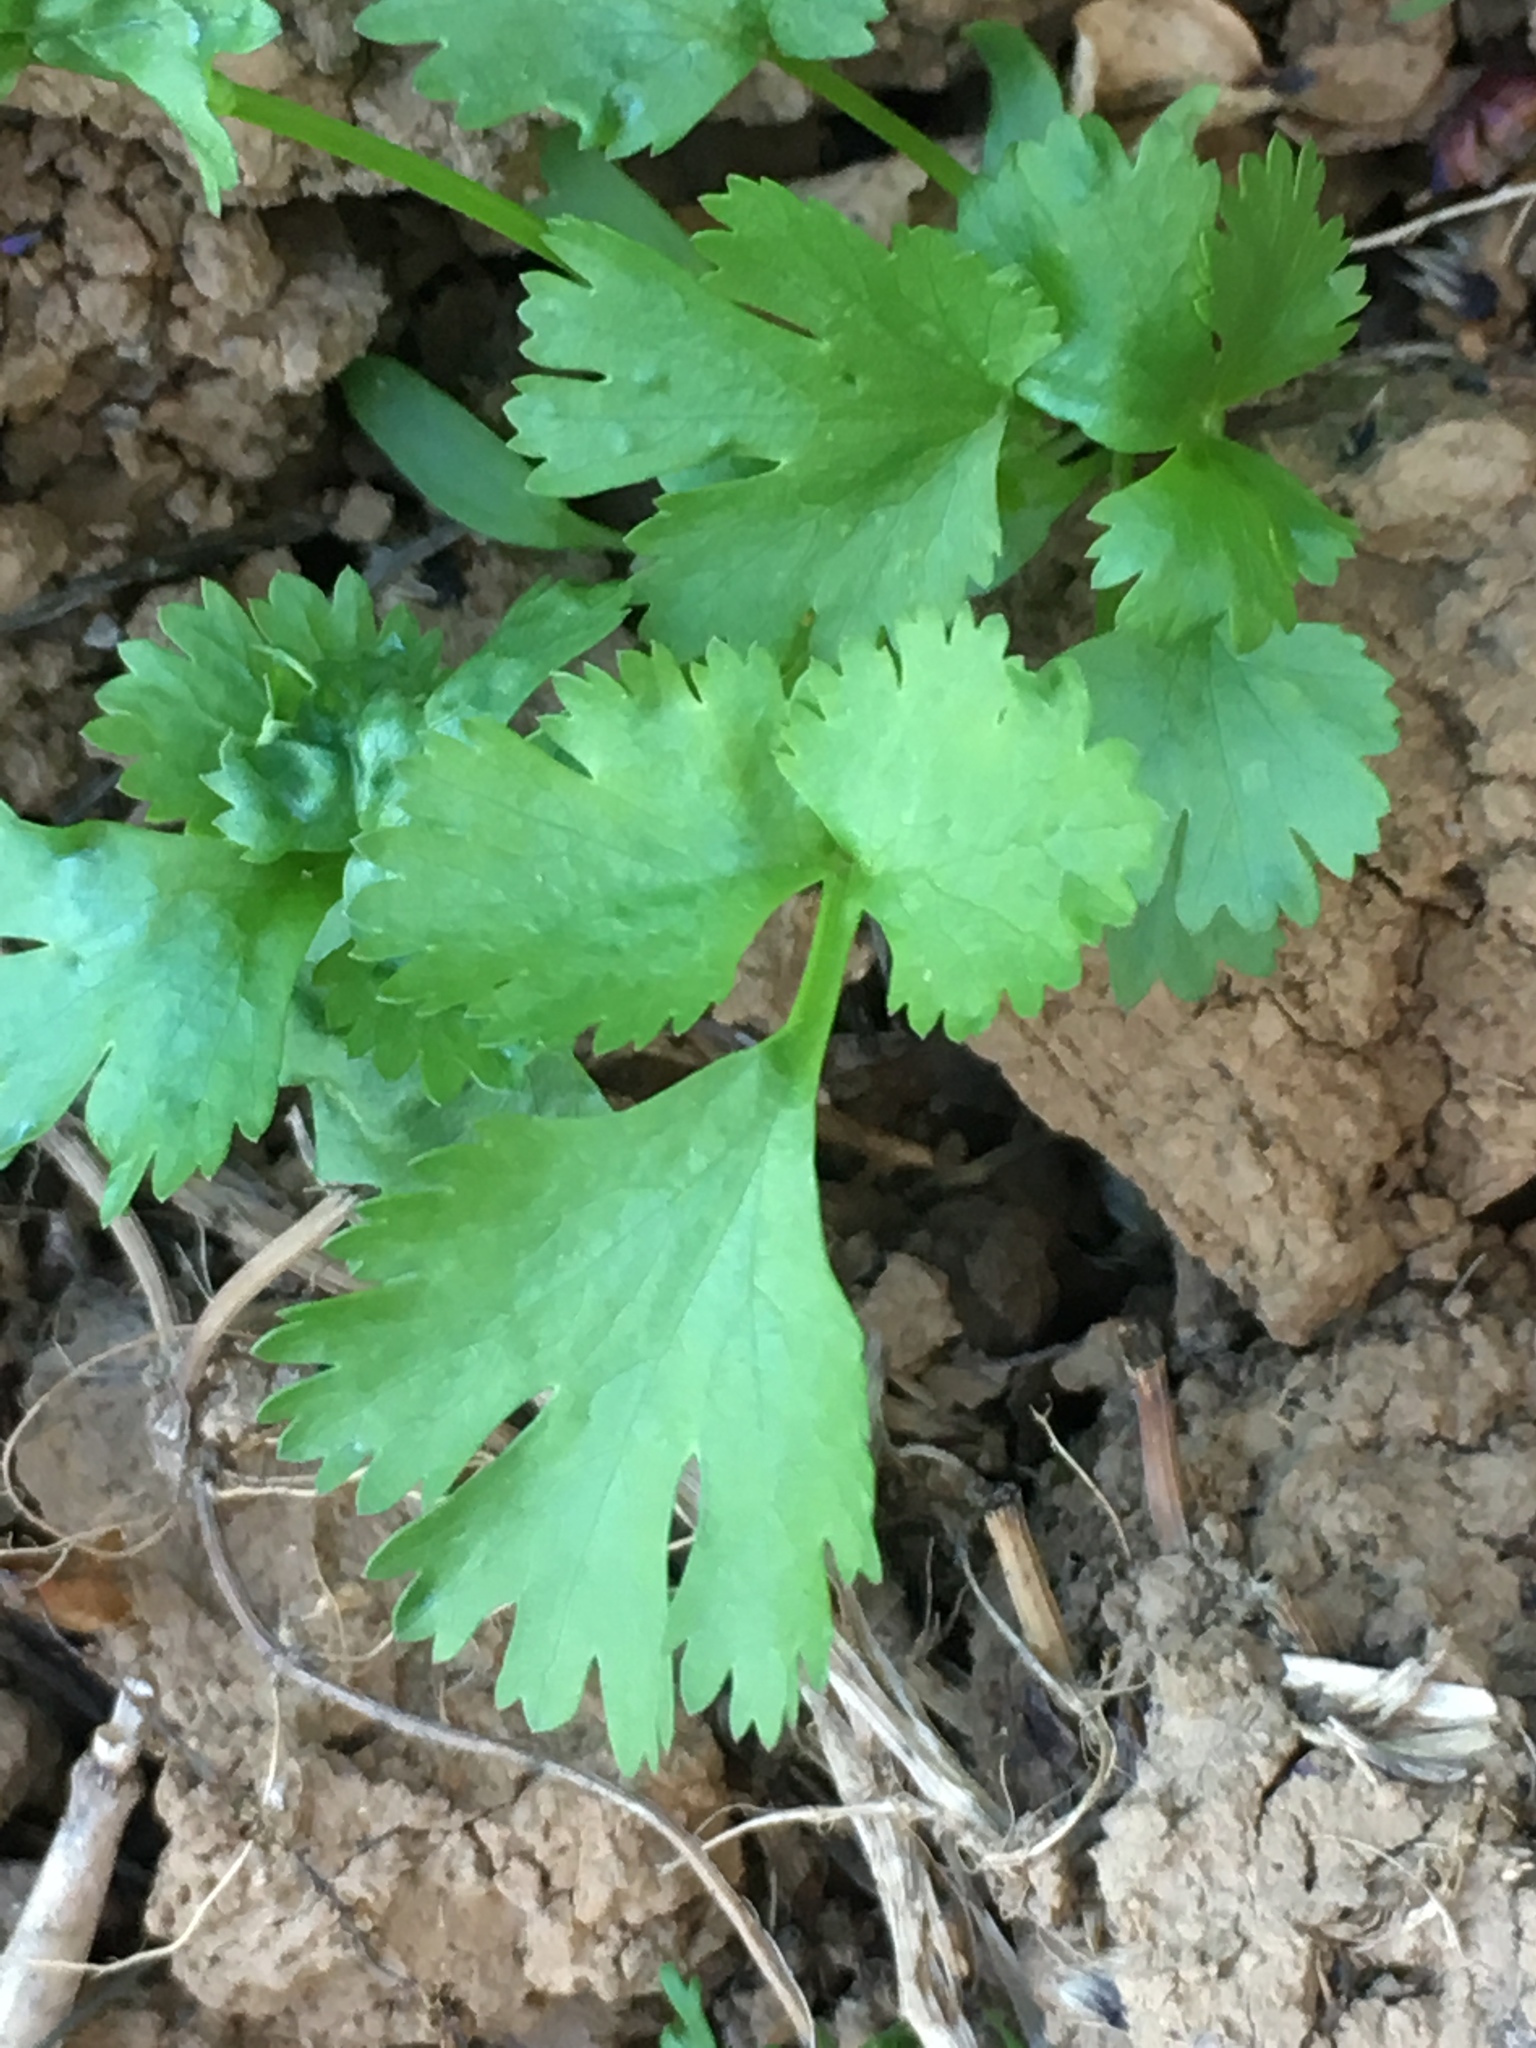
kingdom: Plantae
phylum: Tracheophyta
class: Magnoliopsida
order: Apiales
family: Apiaceae
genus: Apium
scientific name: Apium graveolens
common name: Wild celery
